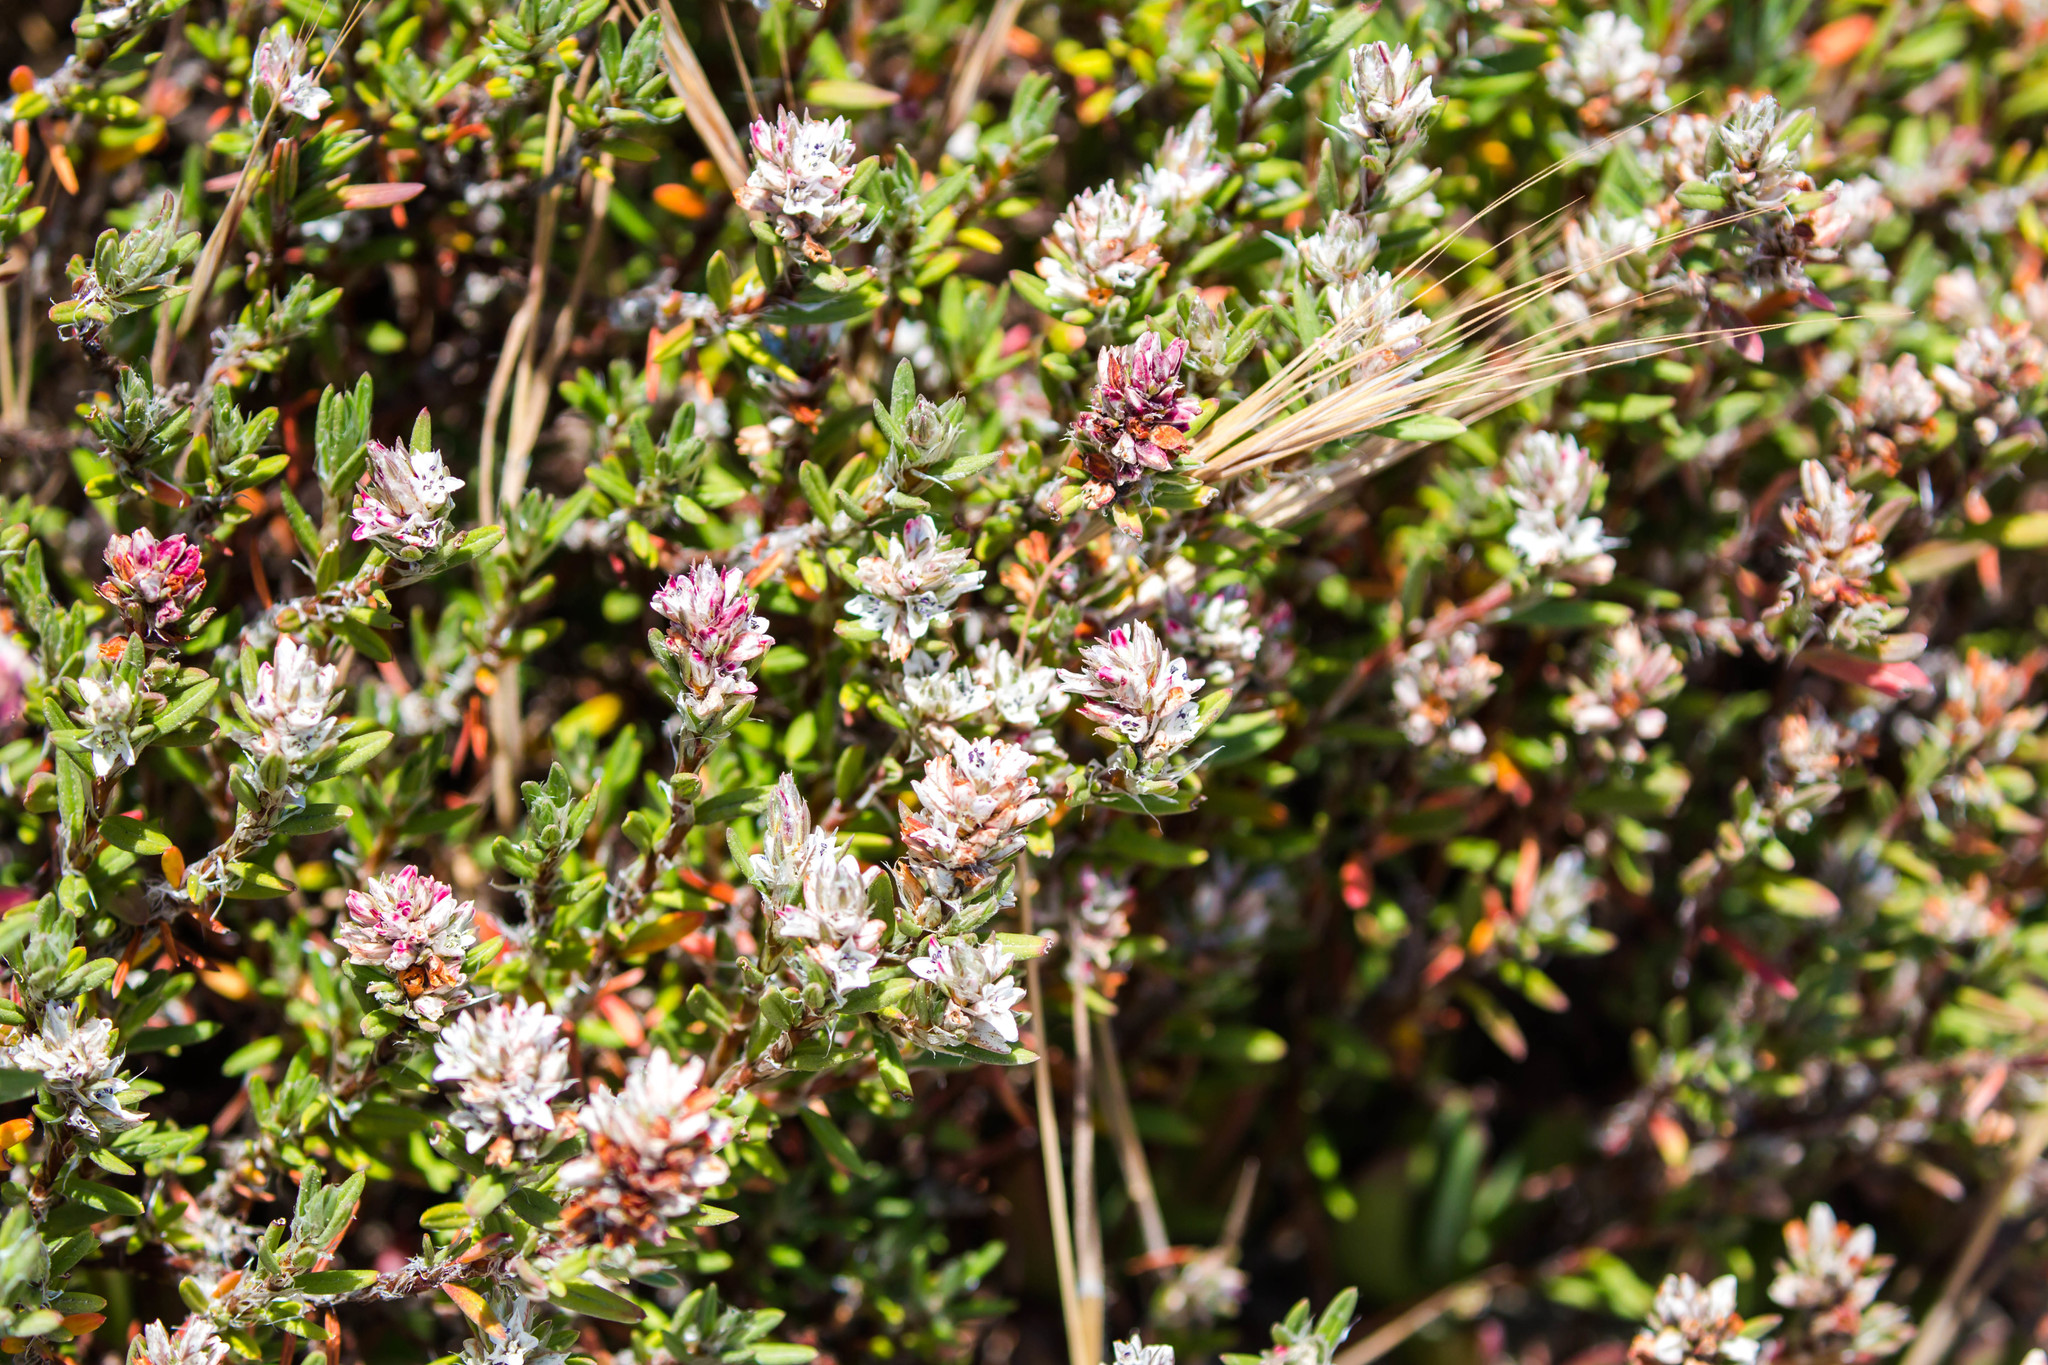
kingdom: Plantae
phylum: Tracheophyta
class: Magnoliopsida
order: Caryophyllales
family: Polygonaceae
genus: Polygonum
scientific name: Polygonum paronychia
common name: Dune knotweed
